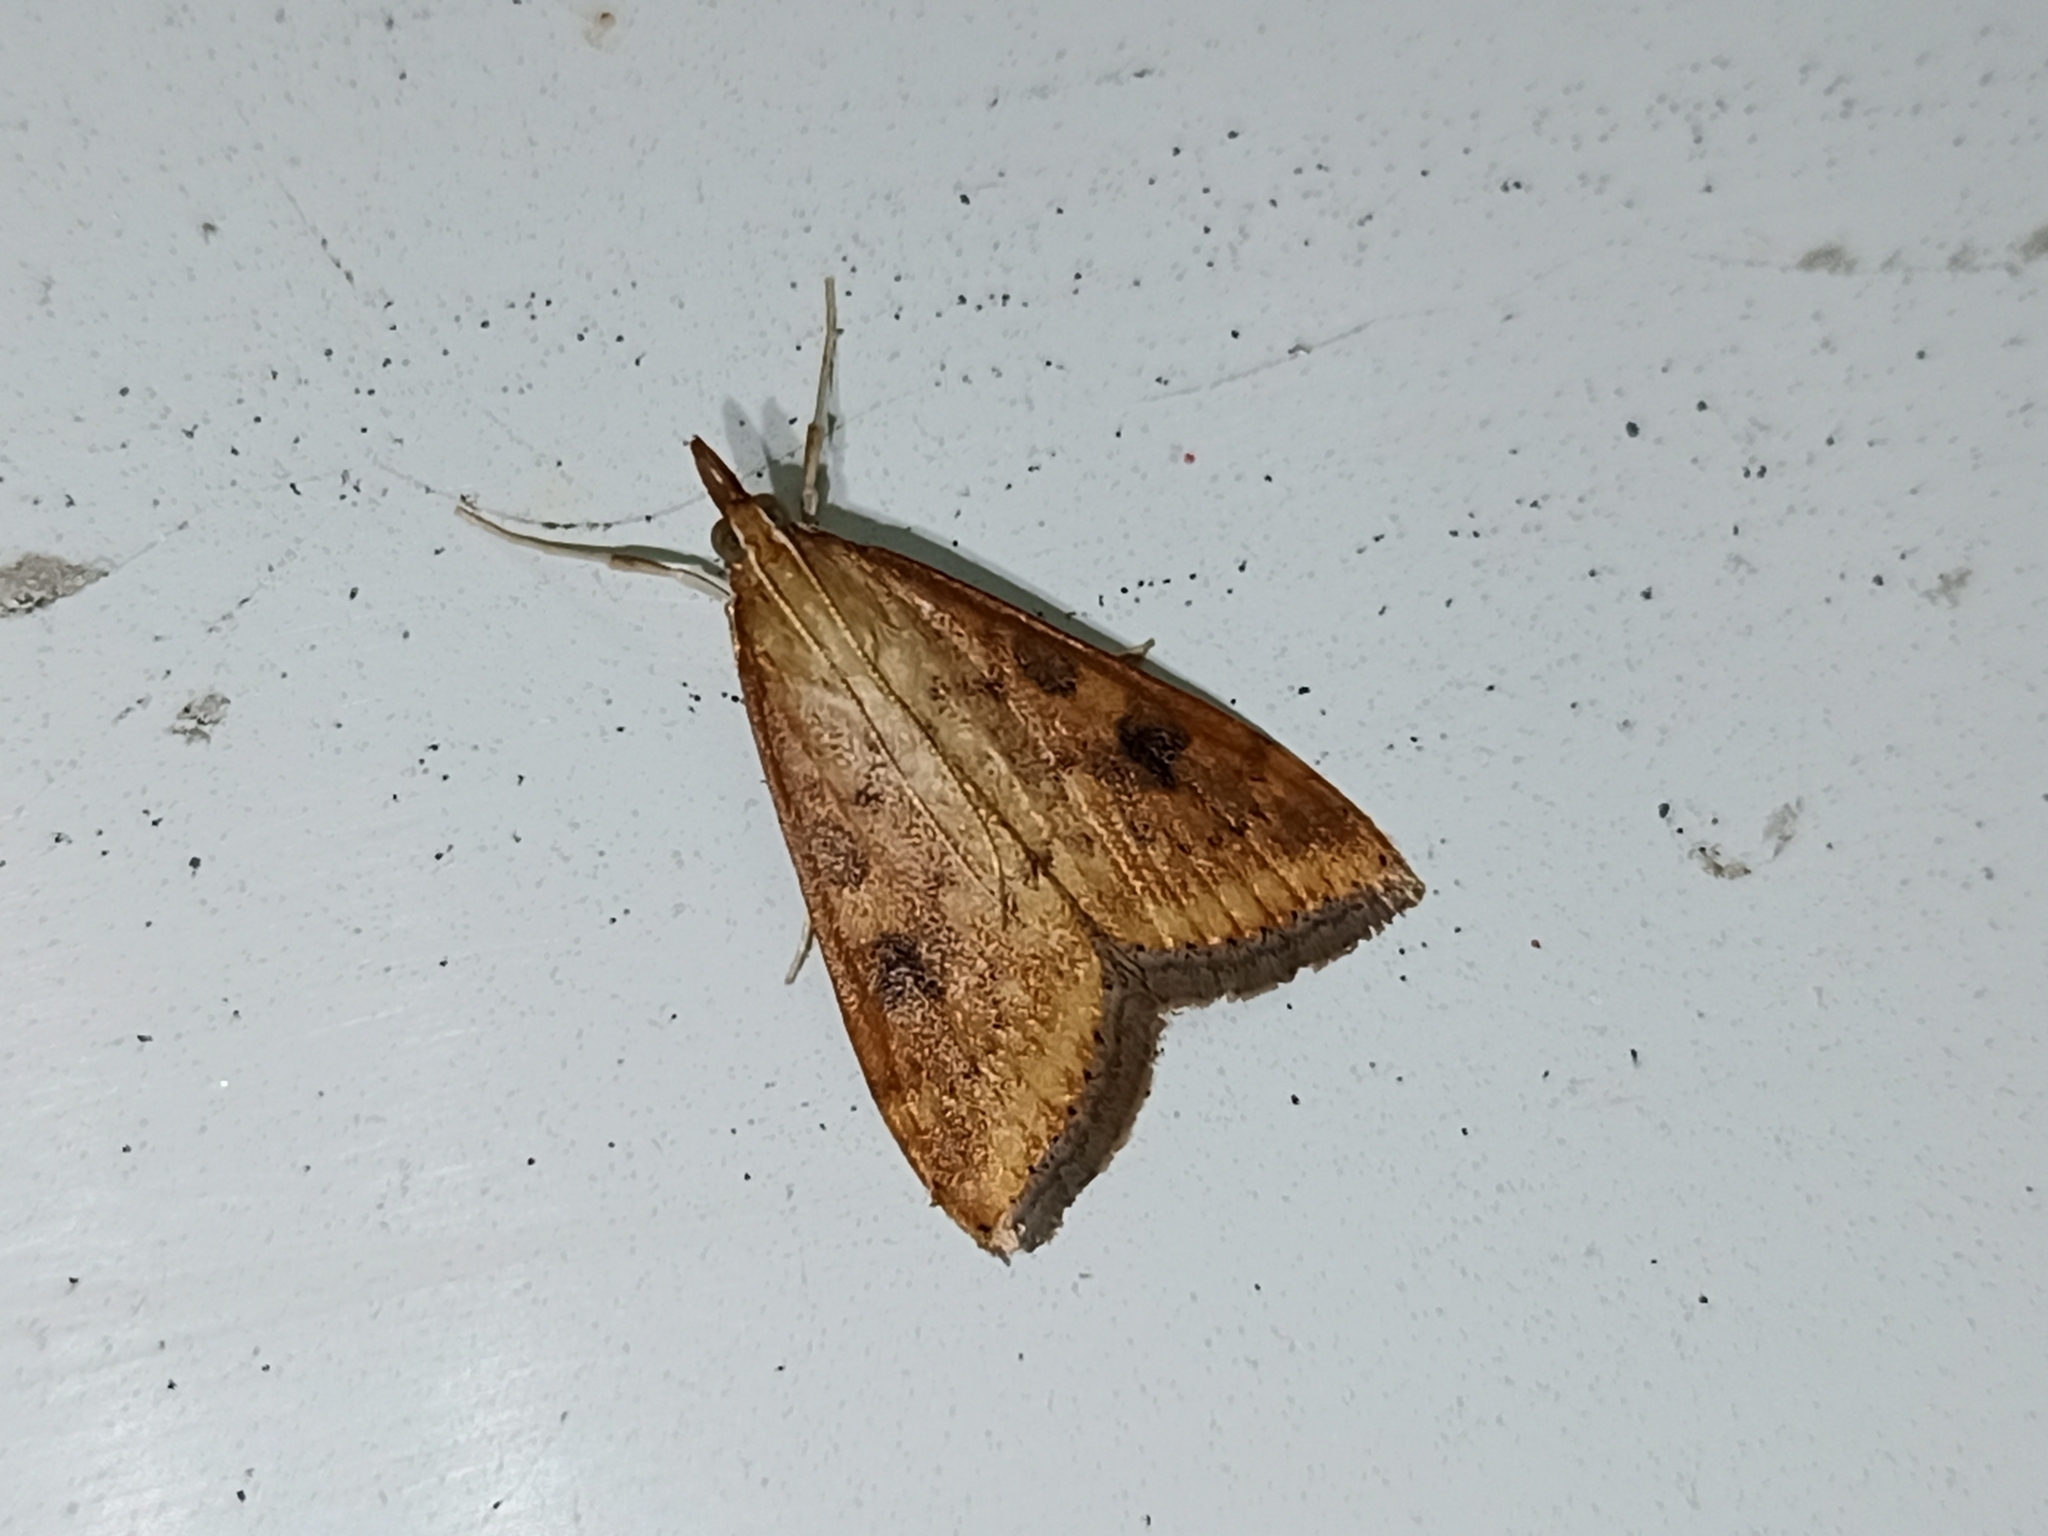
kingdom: Animalia
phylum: Arthropoda
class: Insecta
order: Lepidoptera
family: Crambidae
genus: Udea
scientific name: Udea ferrugalis
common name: Rusty dot
